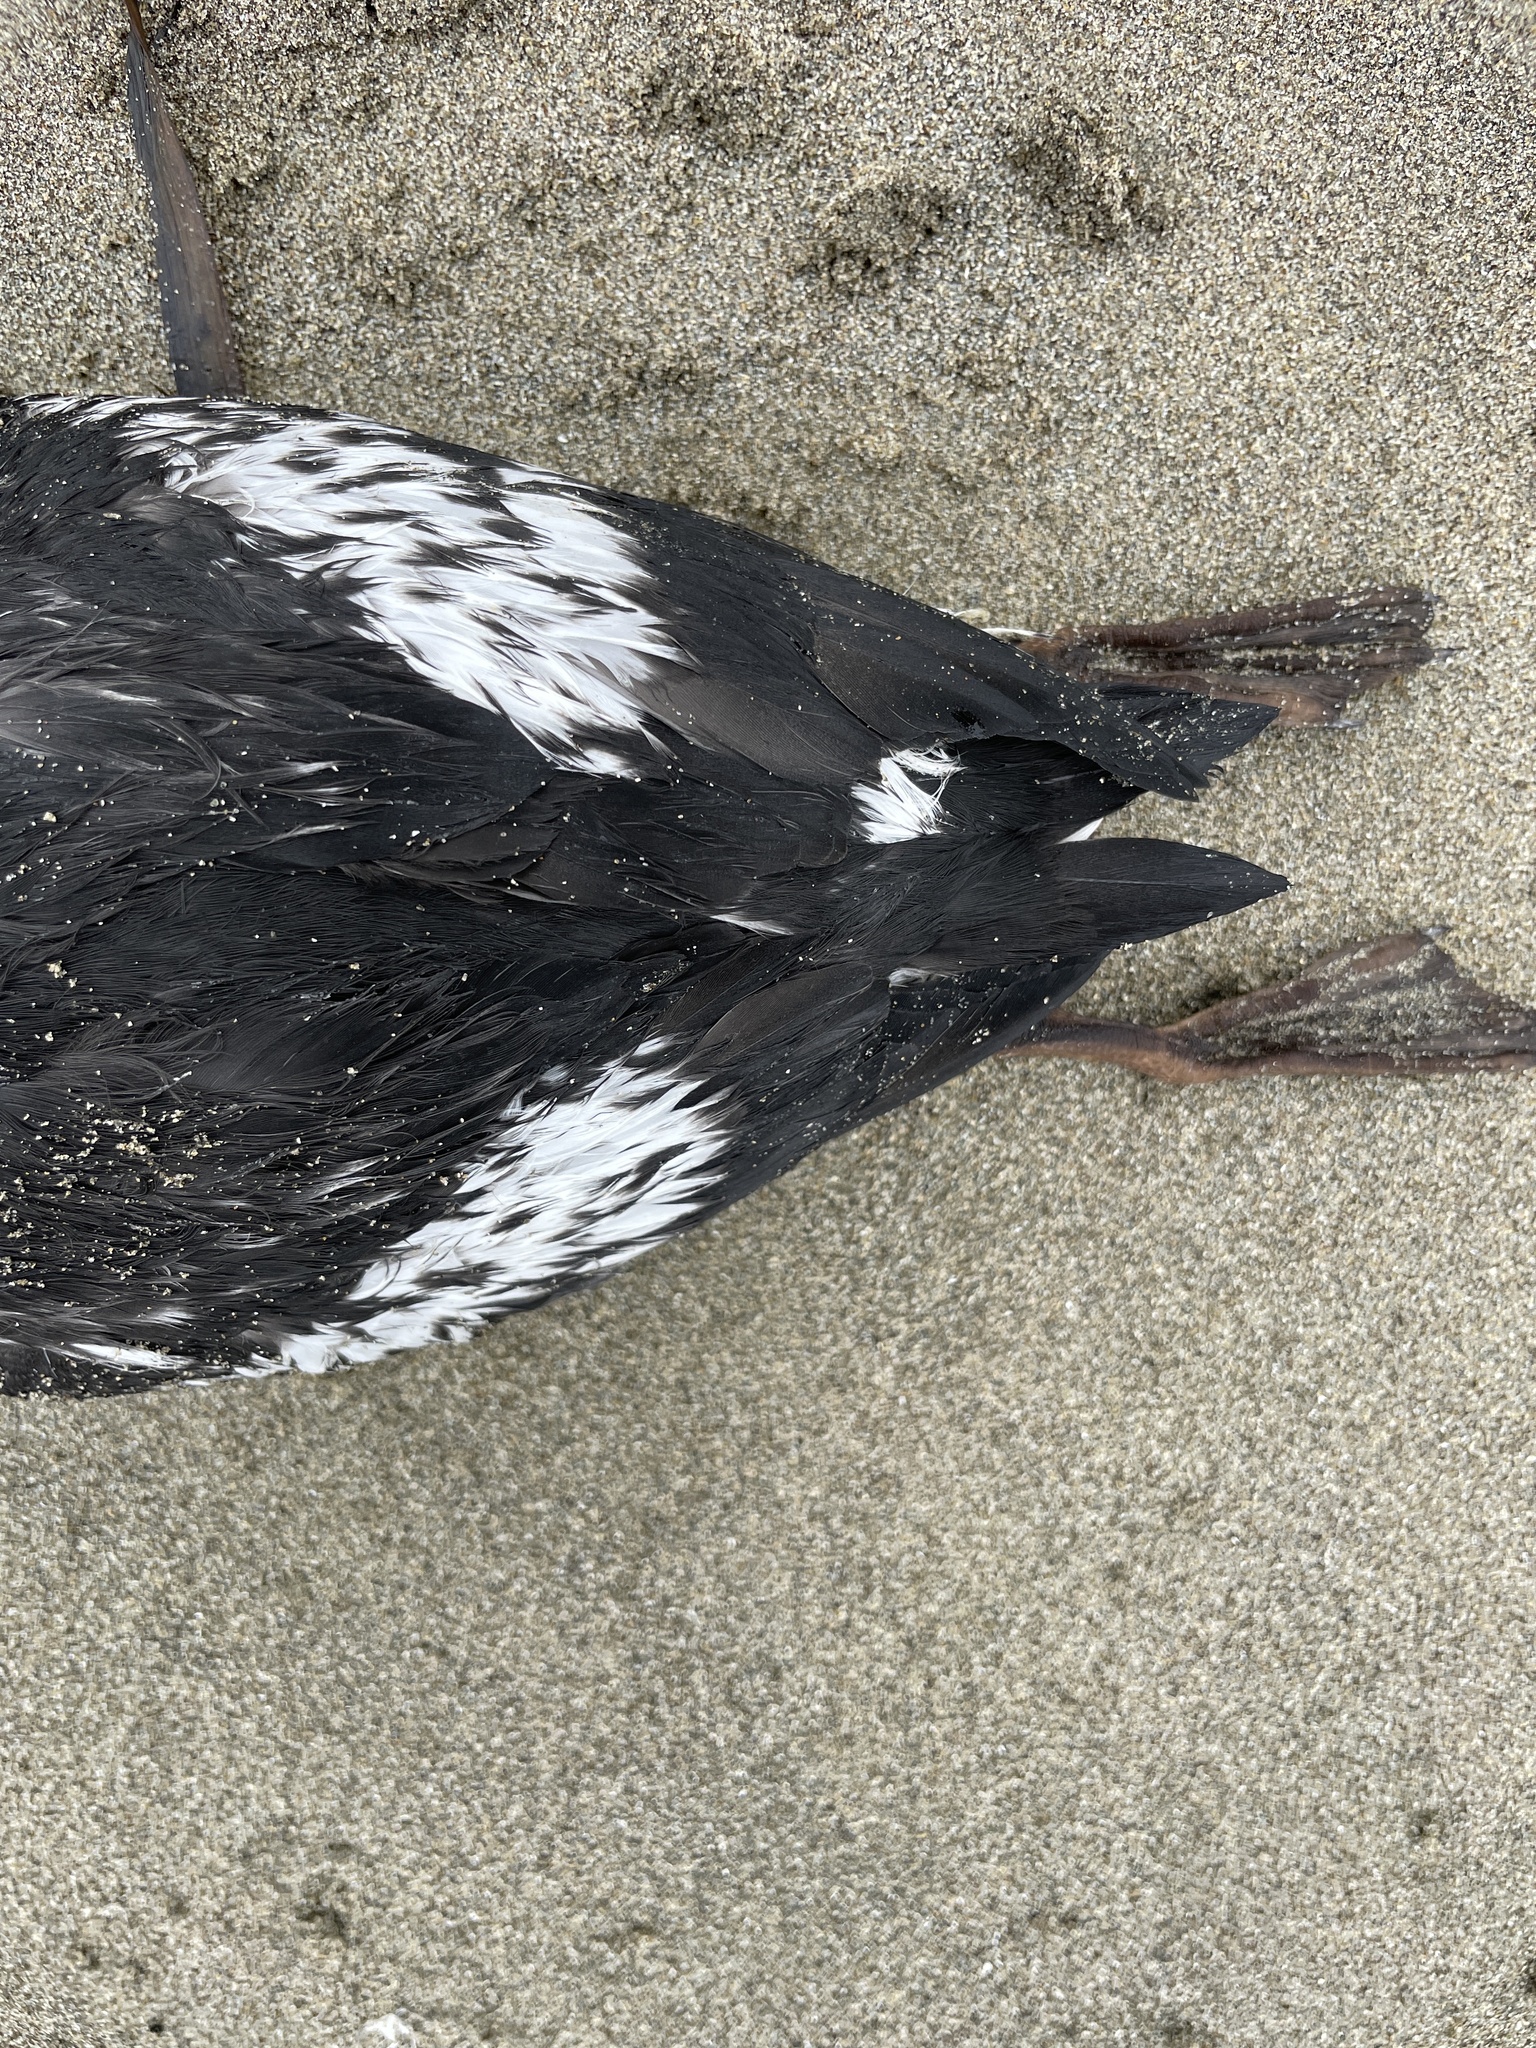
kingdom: Animalia
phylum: Chordata
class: Aves
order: Charadriiformes
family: Alcidae
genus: Cepphus
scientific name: Cepphus columba
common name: Pigeon guillemot
